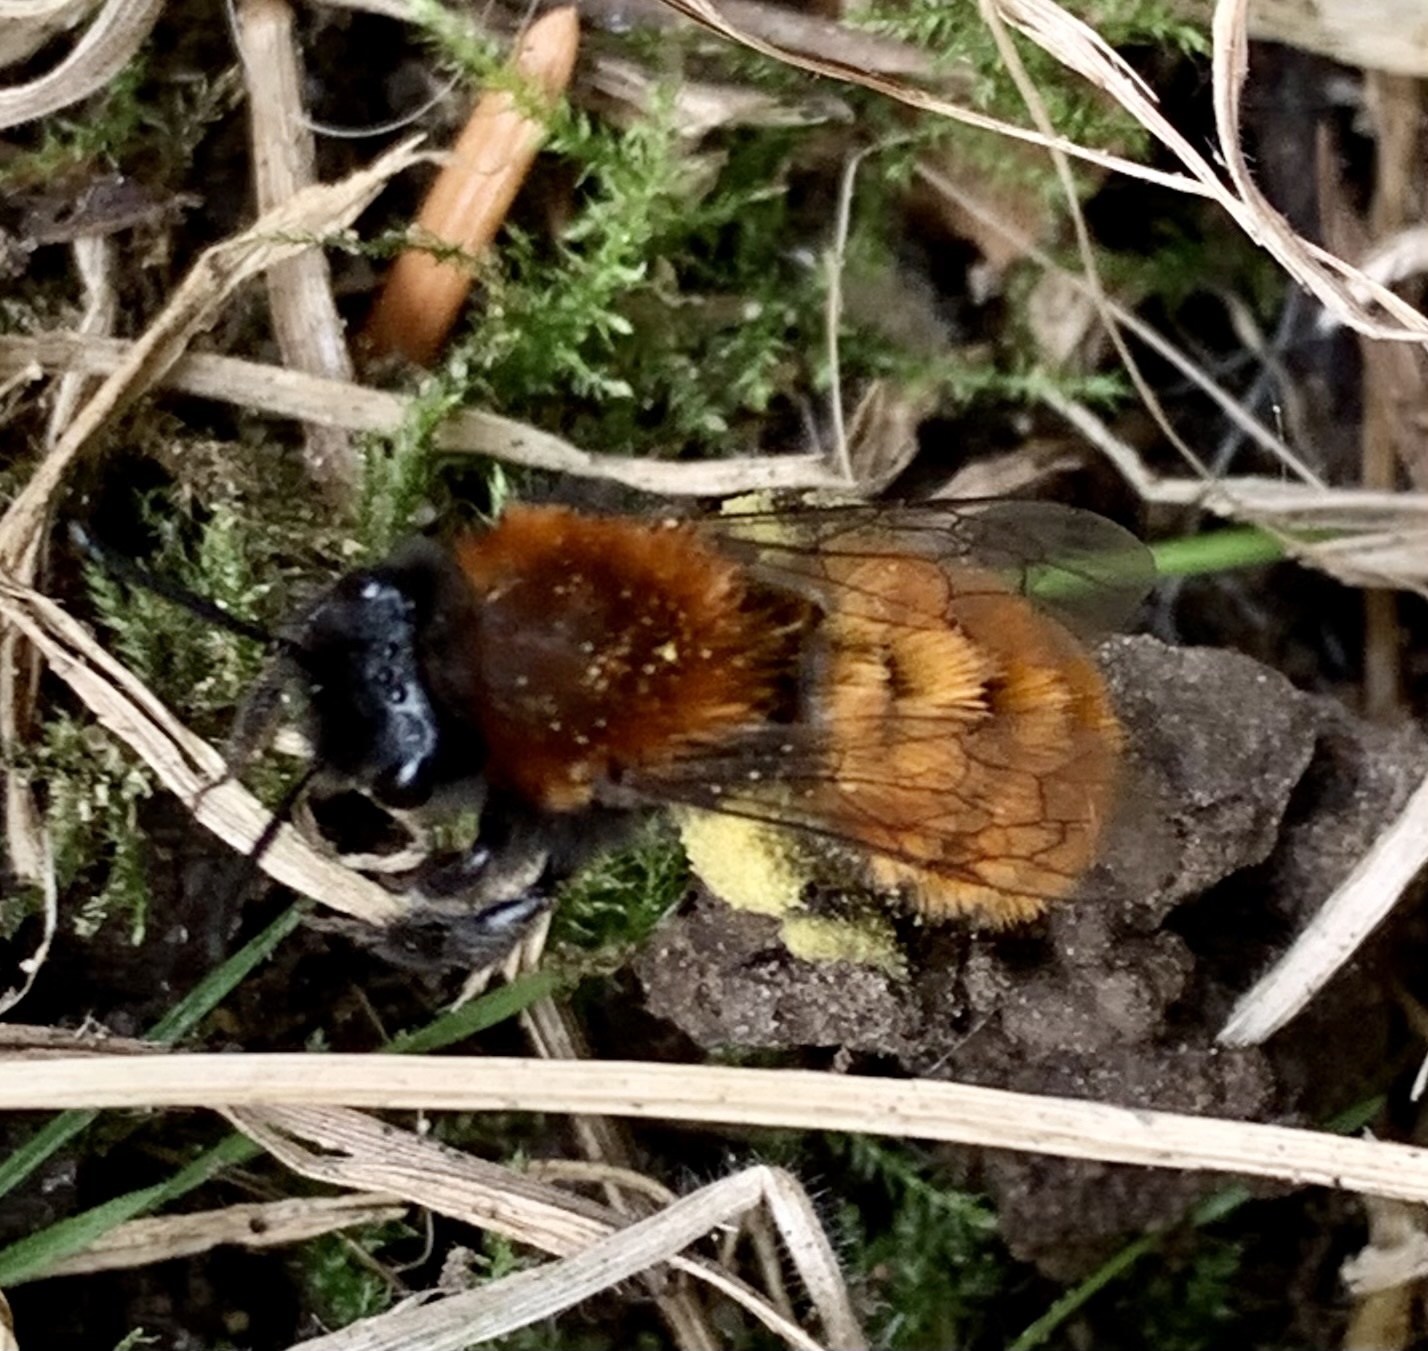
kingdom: Animalia
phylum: Arthropoda
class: Insecta
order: Hymenoptera
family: Andrenidae
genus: Andrena
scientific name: Andrena fulva
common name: Tawny mining bee
